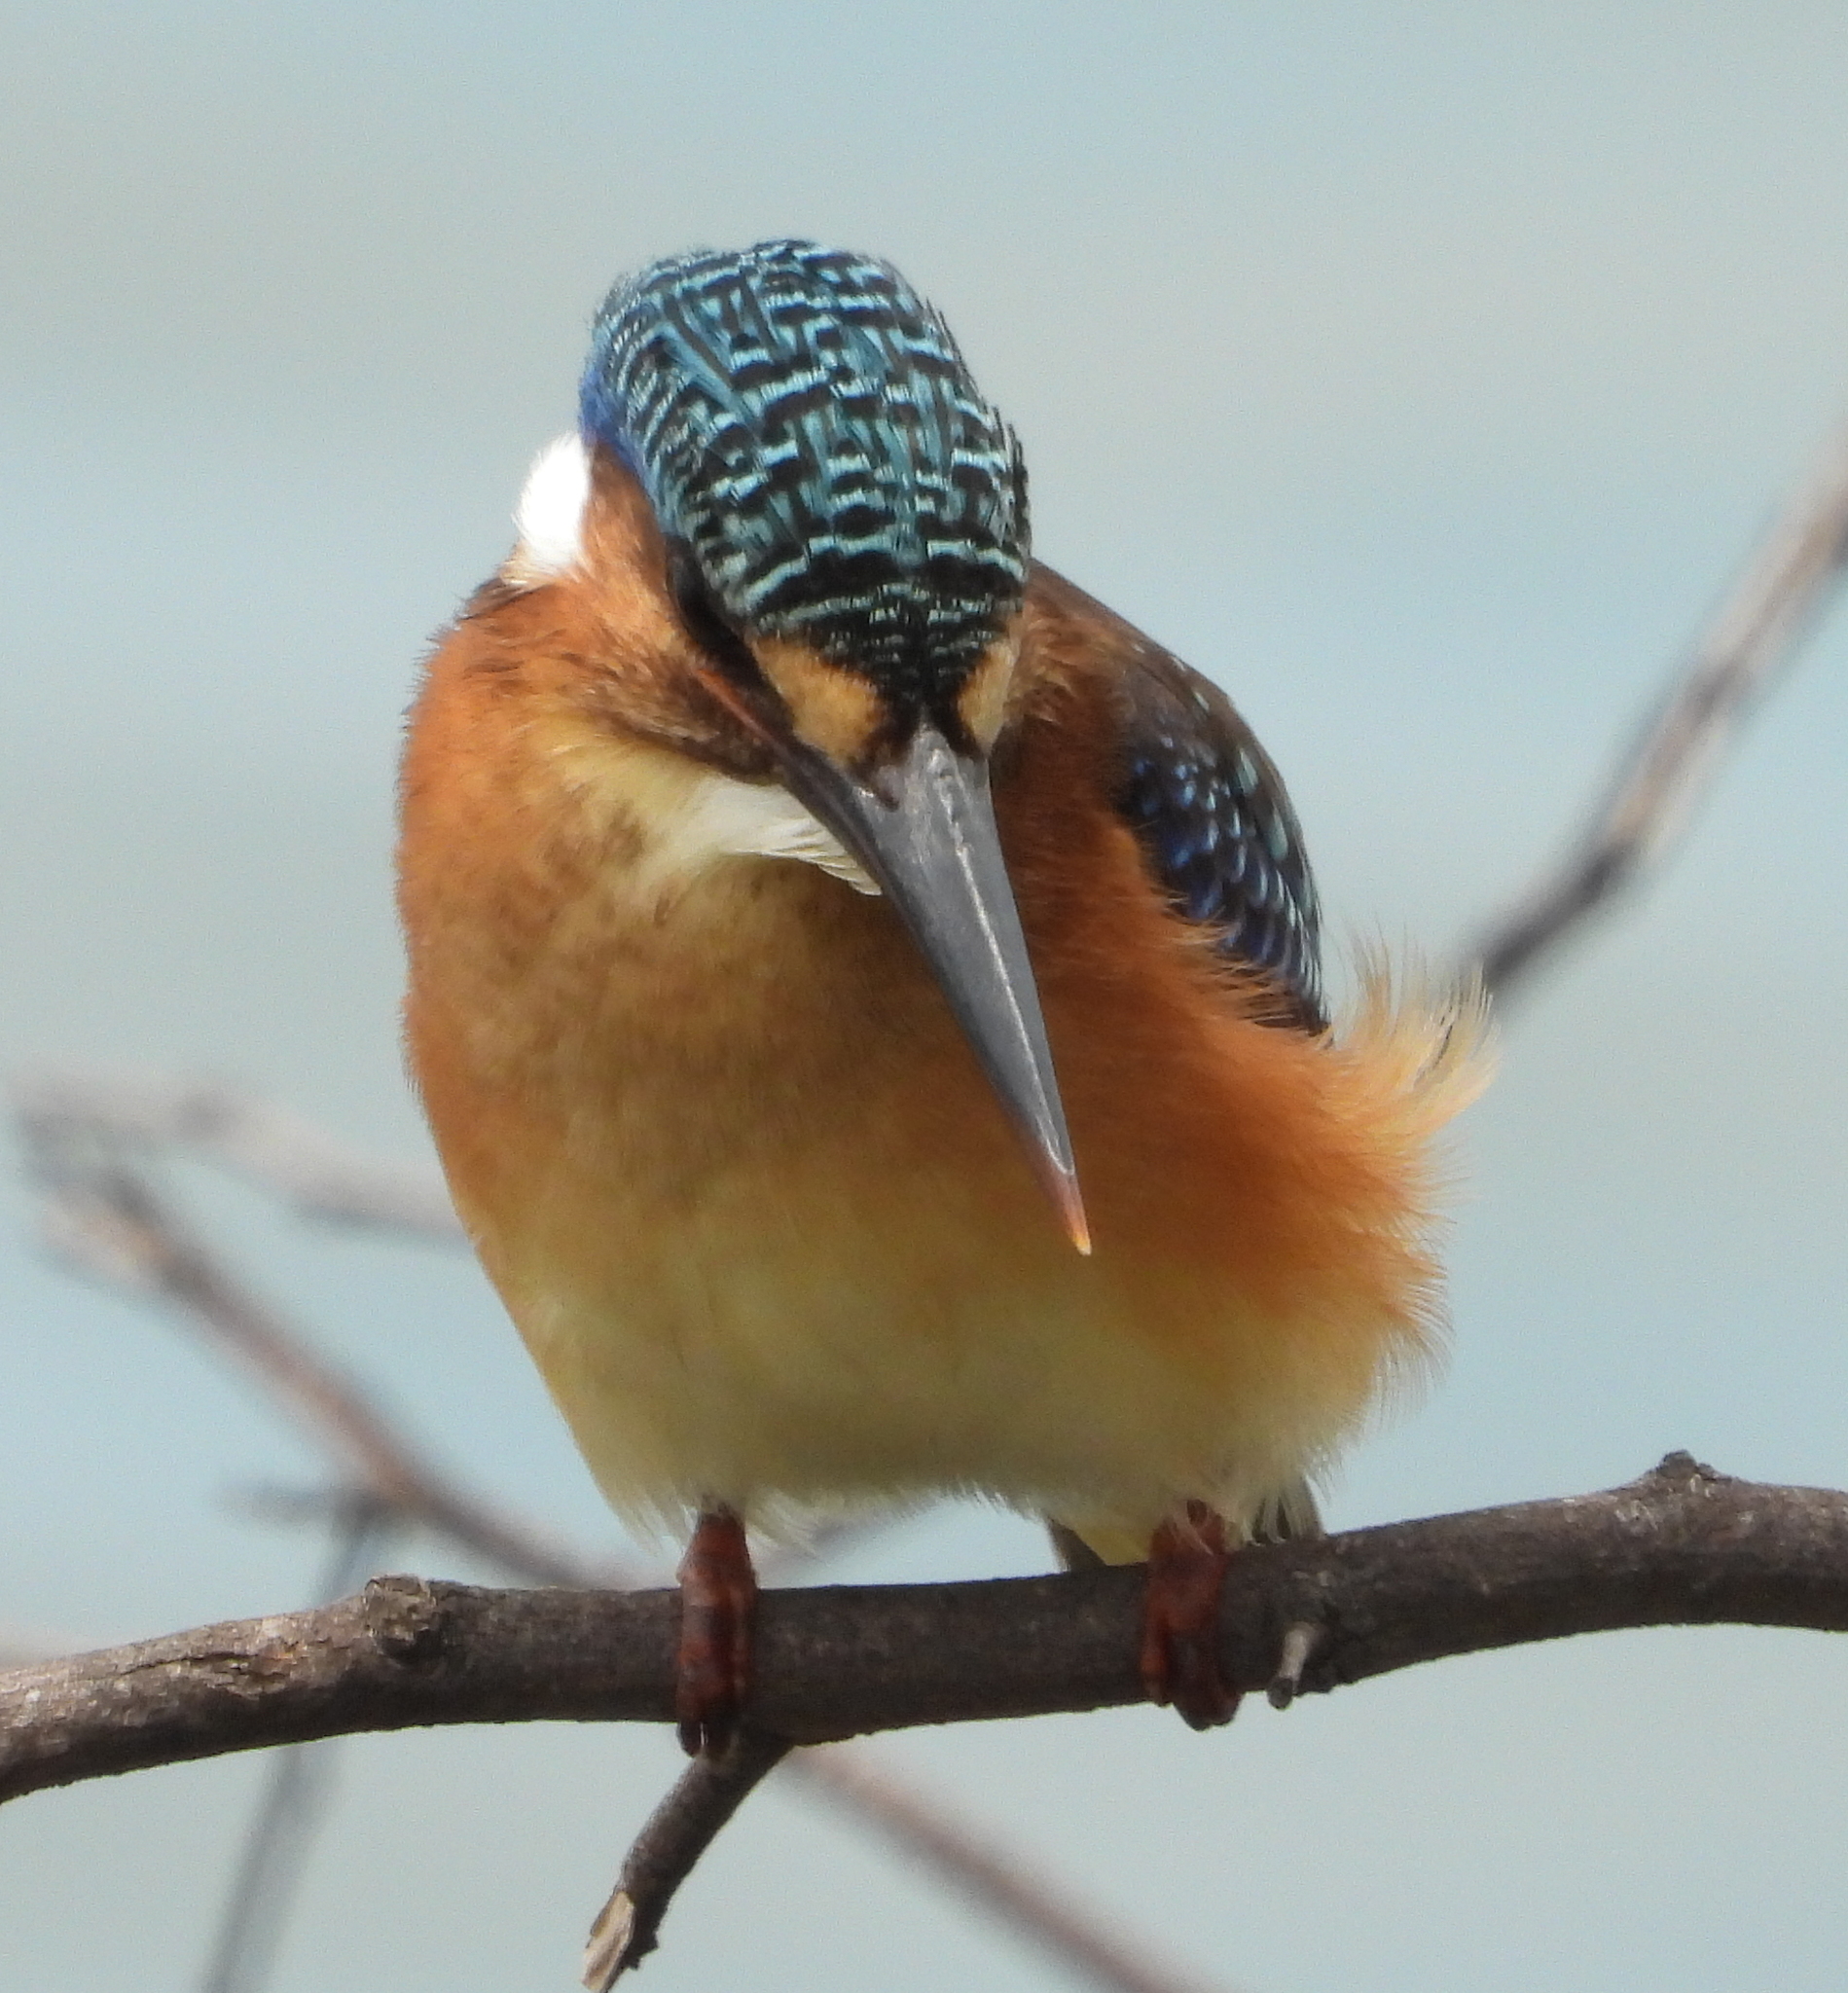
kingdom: Animalia
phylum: Chordata
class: Aves
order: Coraciiformes
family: Alcedinidae
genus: Corythornis
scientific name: Corythornis cristatus
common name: Malachite kingfisher
